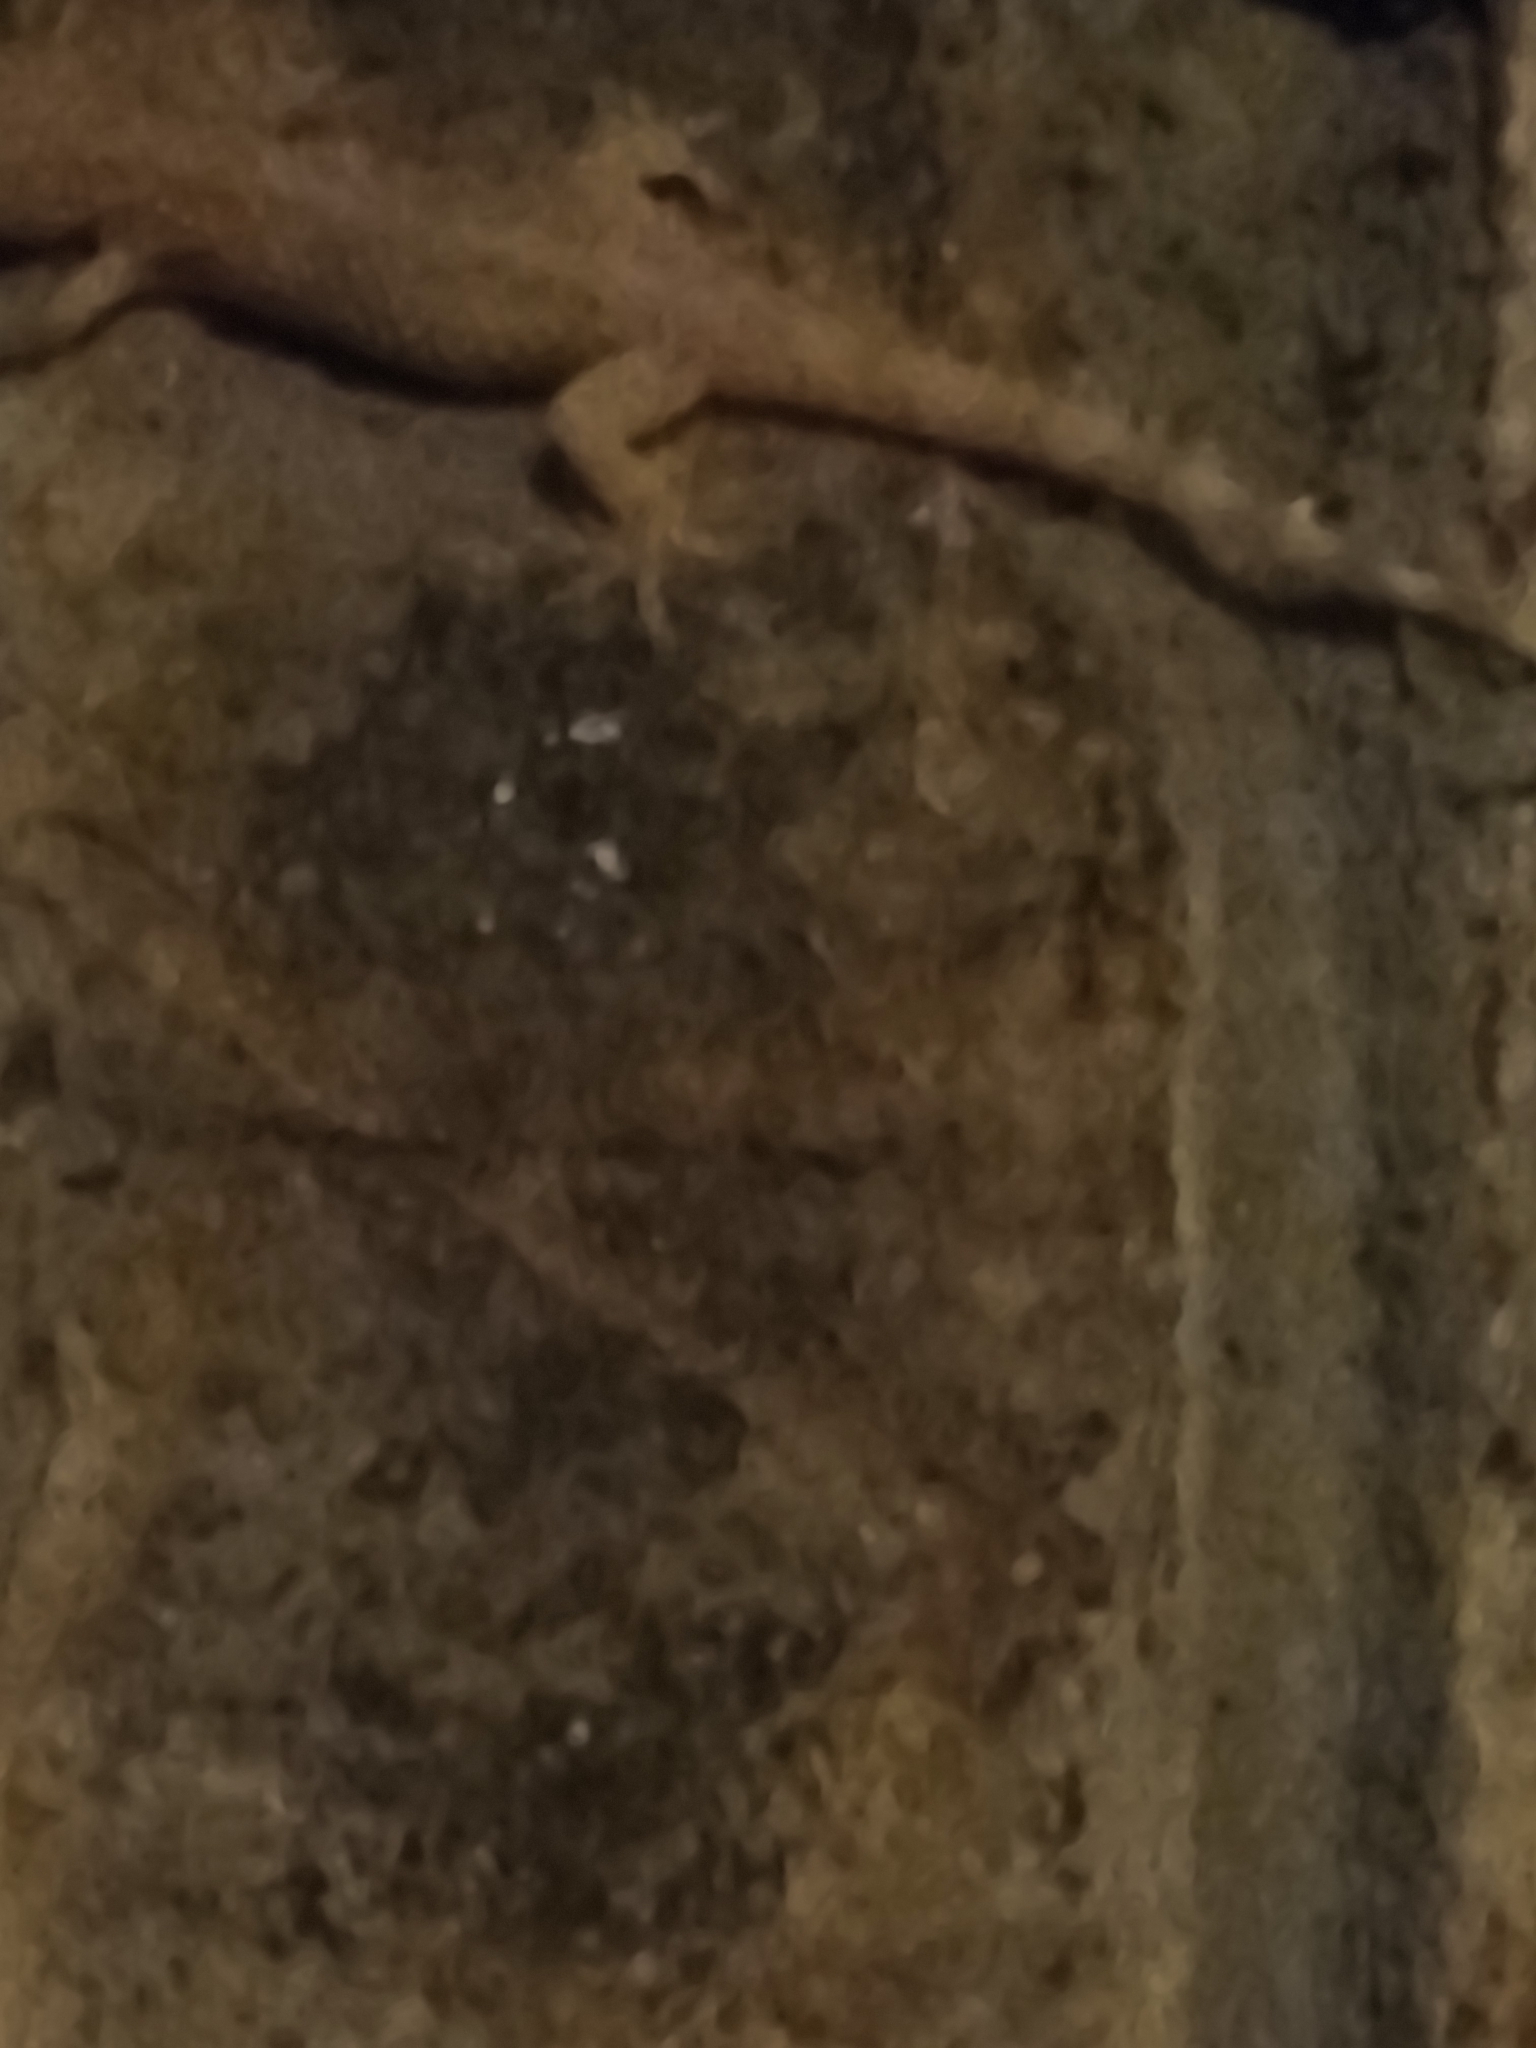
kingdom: Animalia
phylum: Chordata
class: Squamata
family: Gekkonidae
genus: Hemidactylus
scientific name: Hemidactylus turcicus
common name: Turkish gecko
